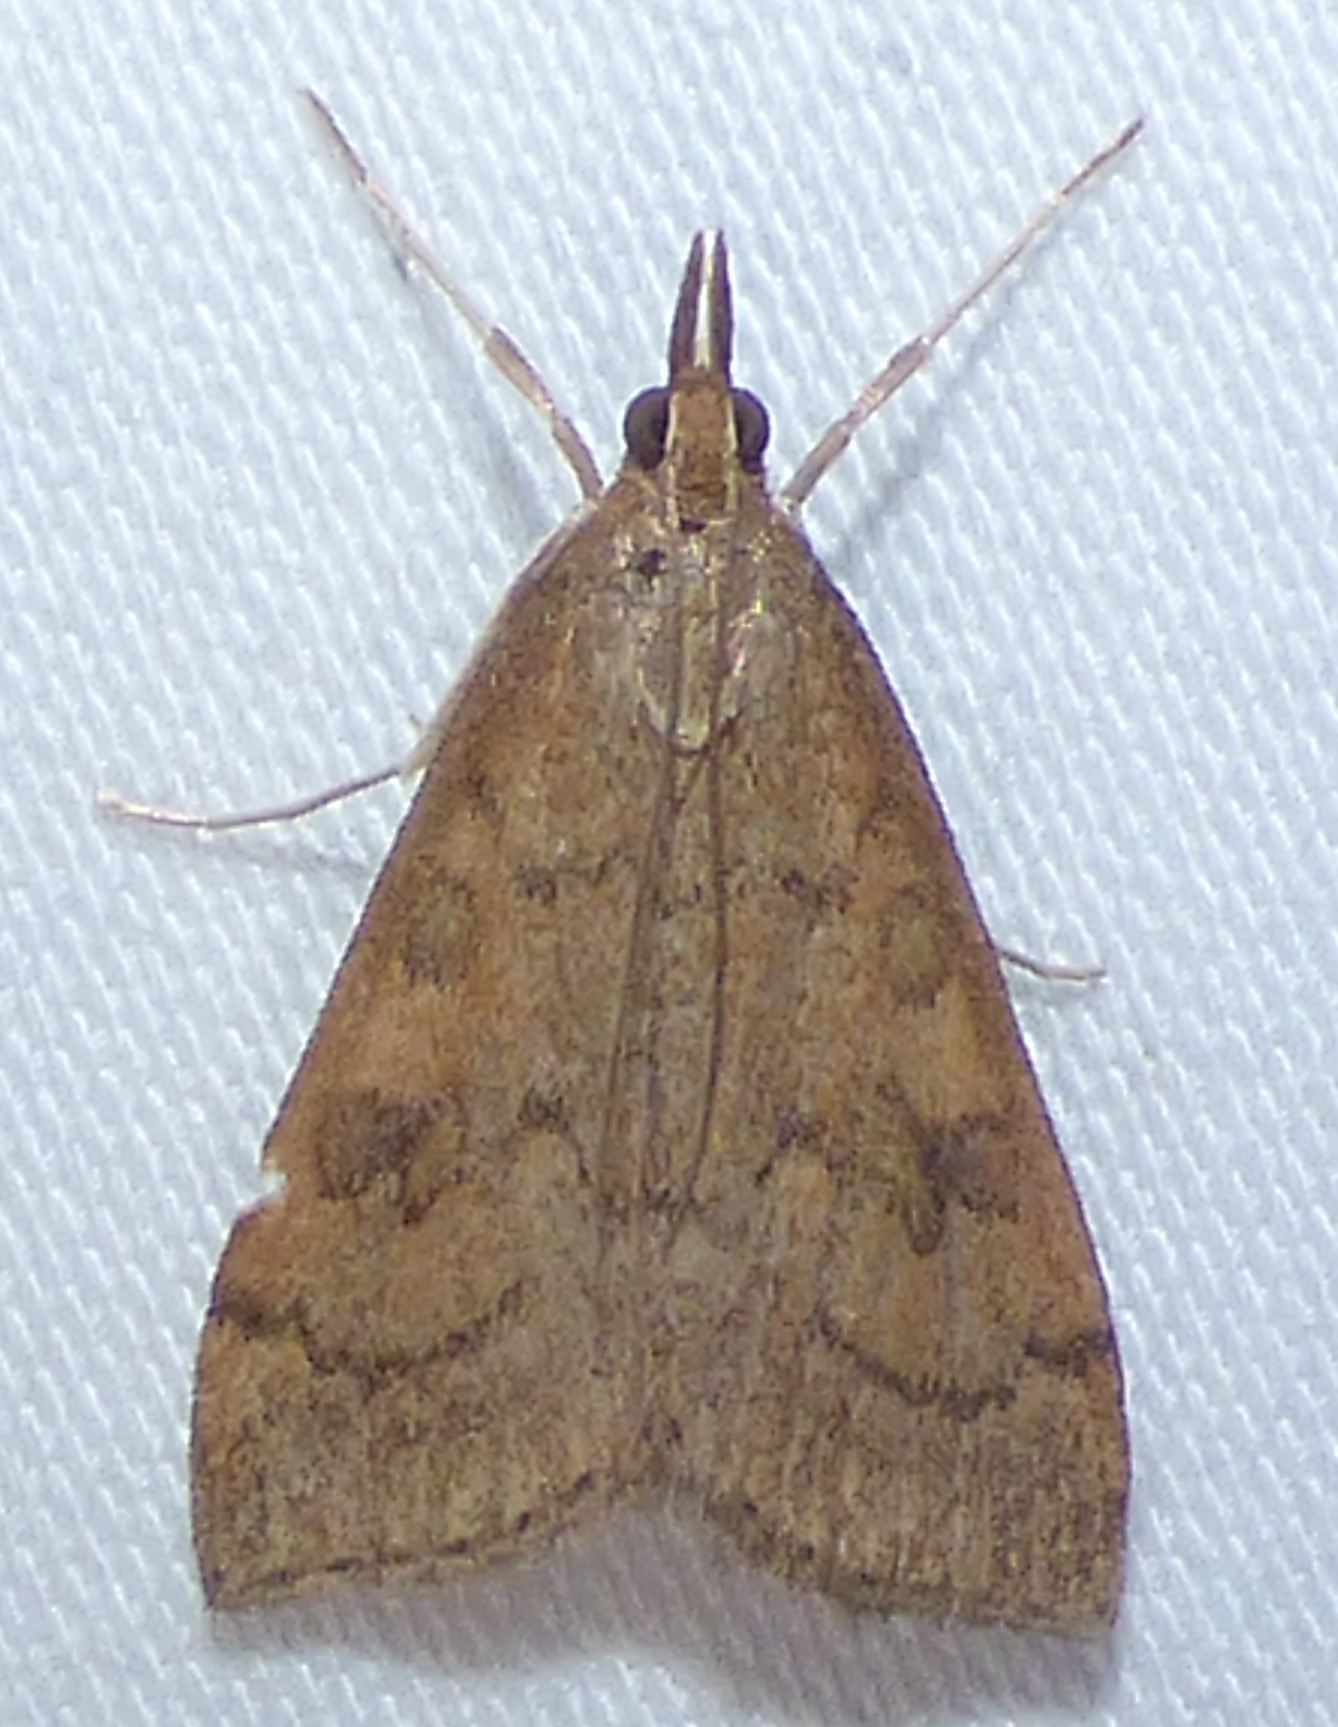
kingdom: Animalia
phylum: Arthropoda
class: Insecta
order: Lepidoptera
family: Crambidae
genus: Udea
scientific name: Udea rubigalis
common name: Celery leaftier moth
